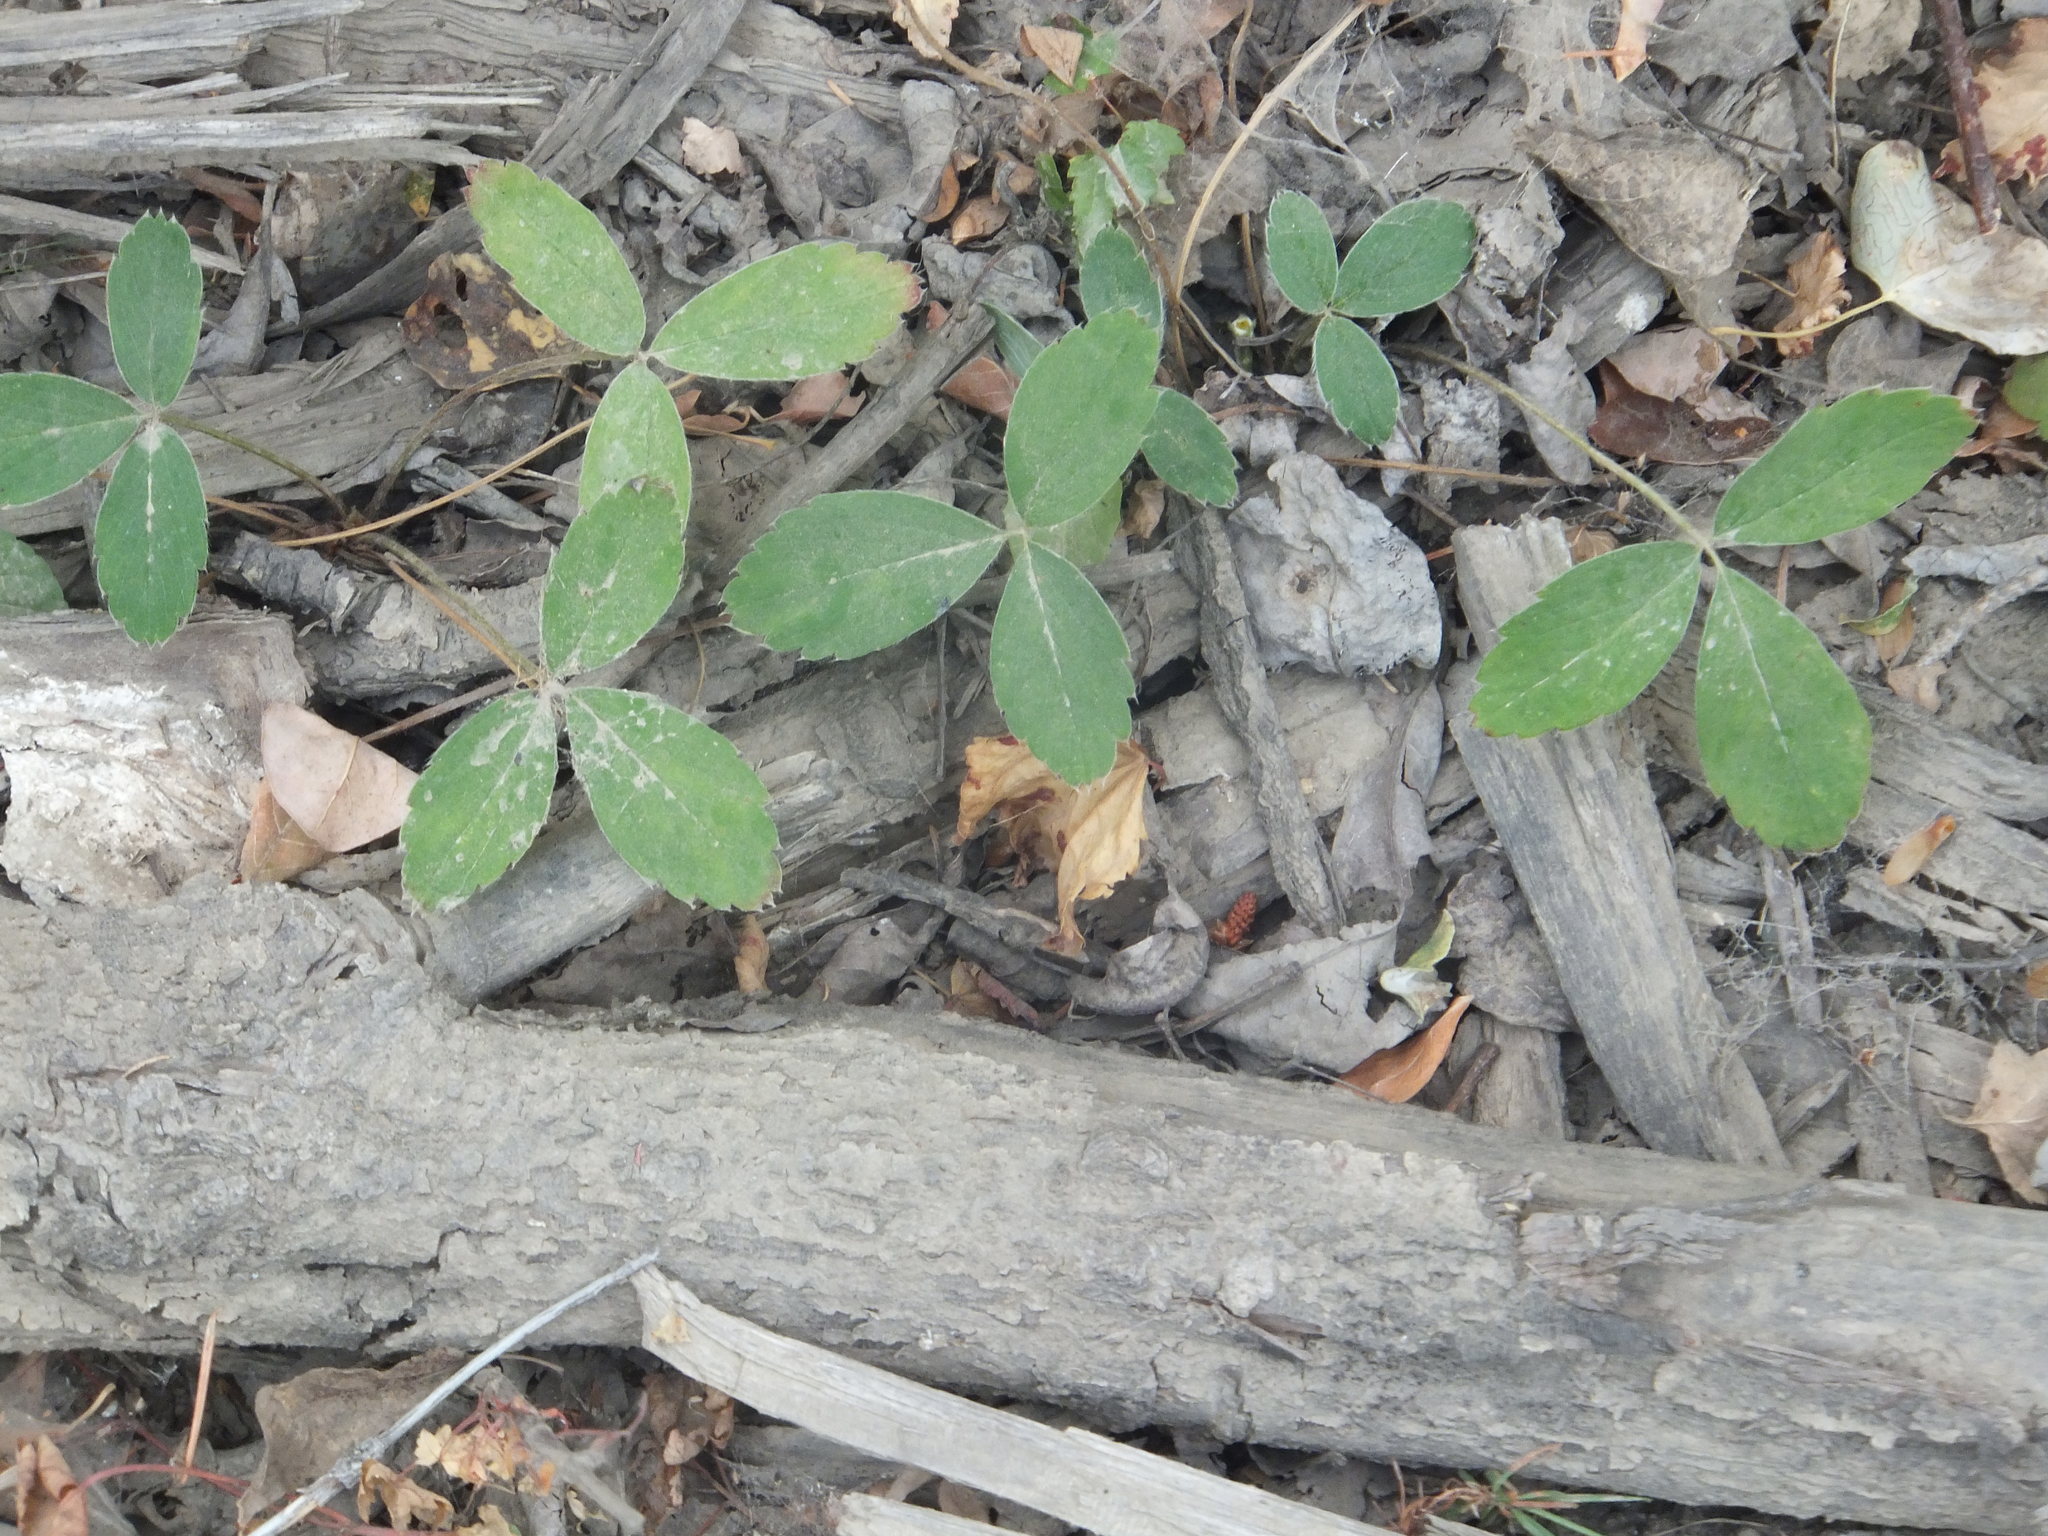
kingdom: Plantae
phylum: Tracheophyta
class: Magnoliopsida
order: Rosales
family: Rosaceae
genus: Fragaria
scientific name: Fragaria virginiana
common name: Thickleaved wild strawberry
